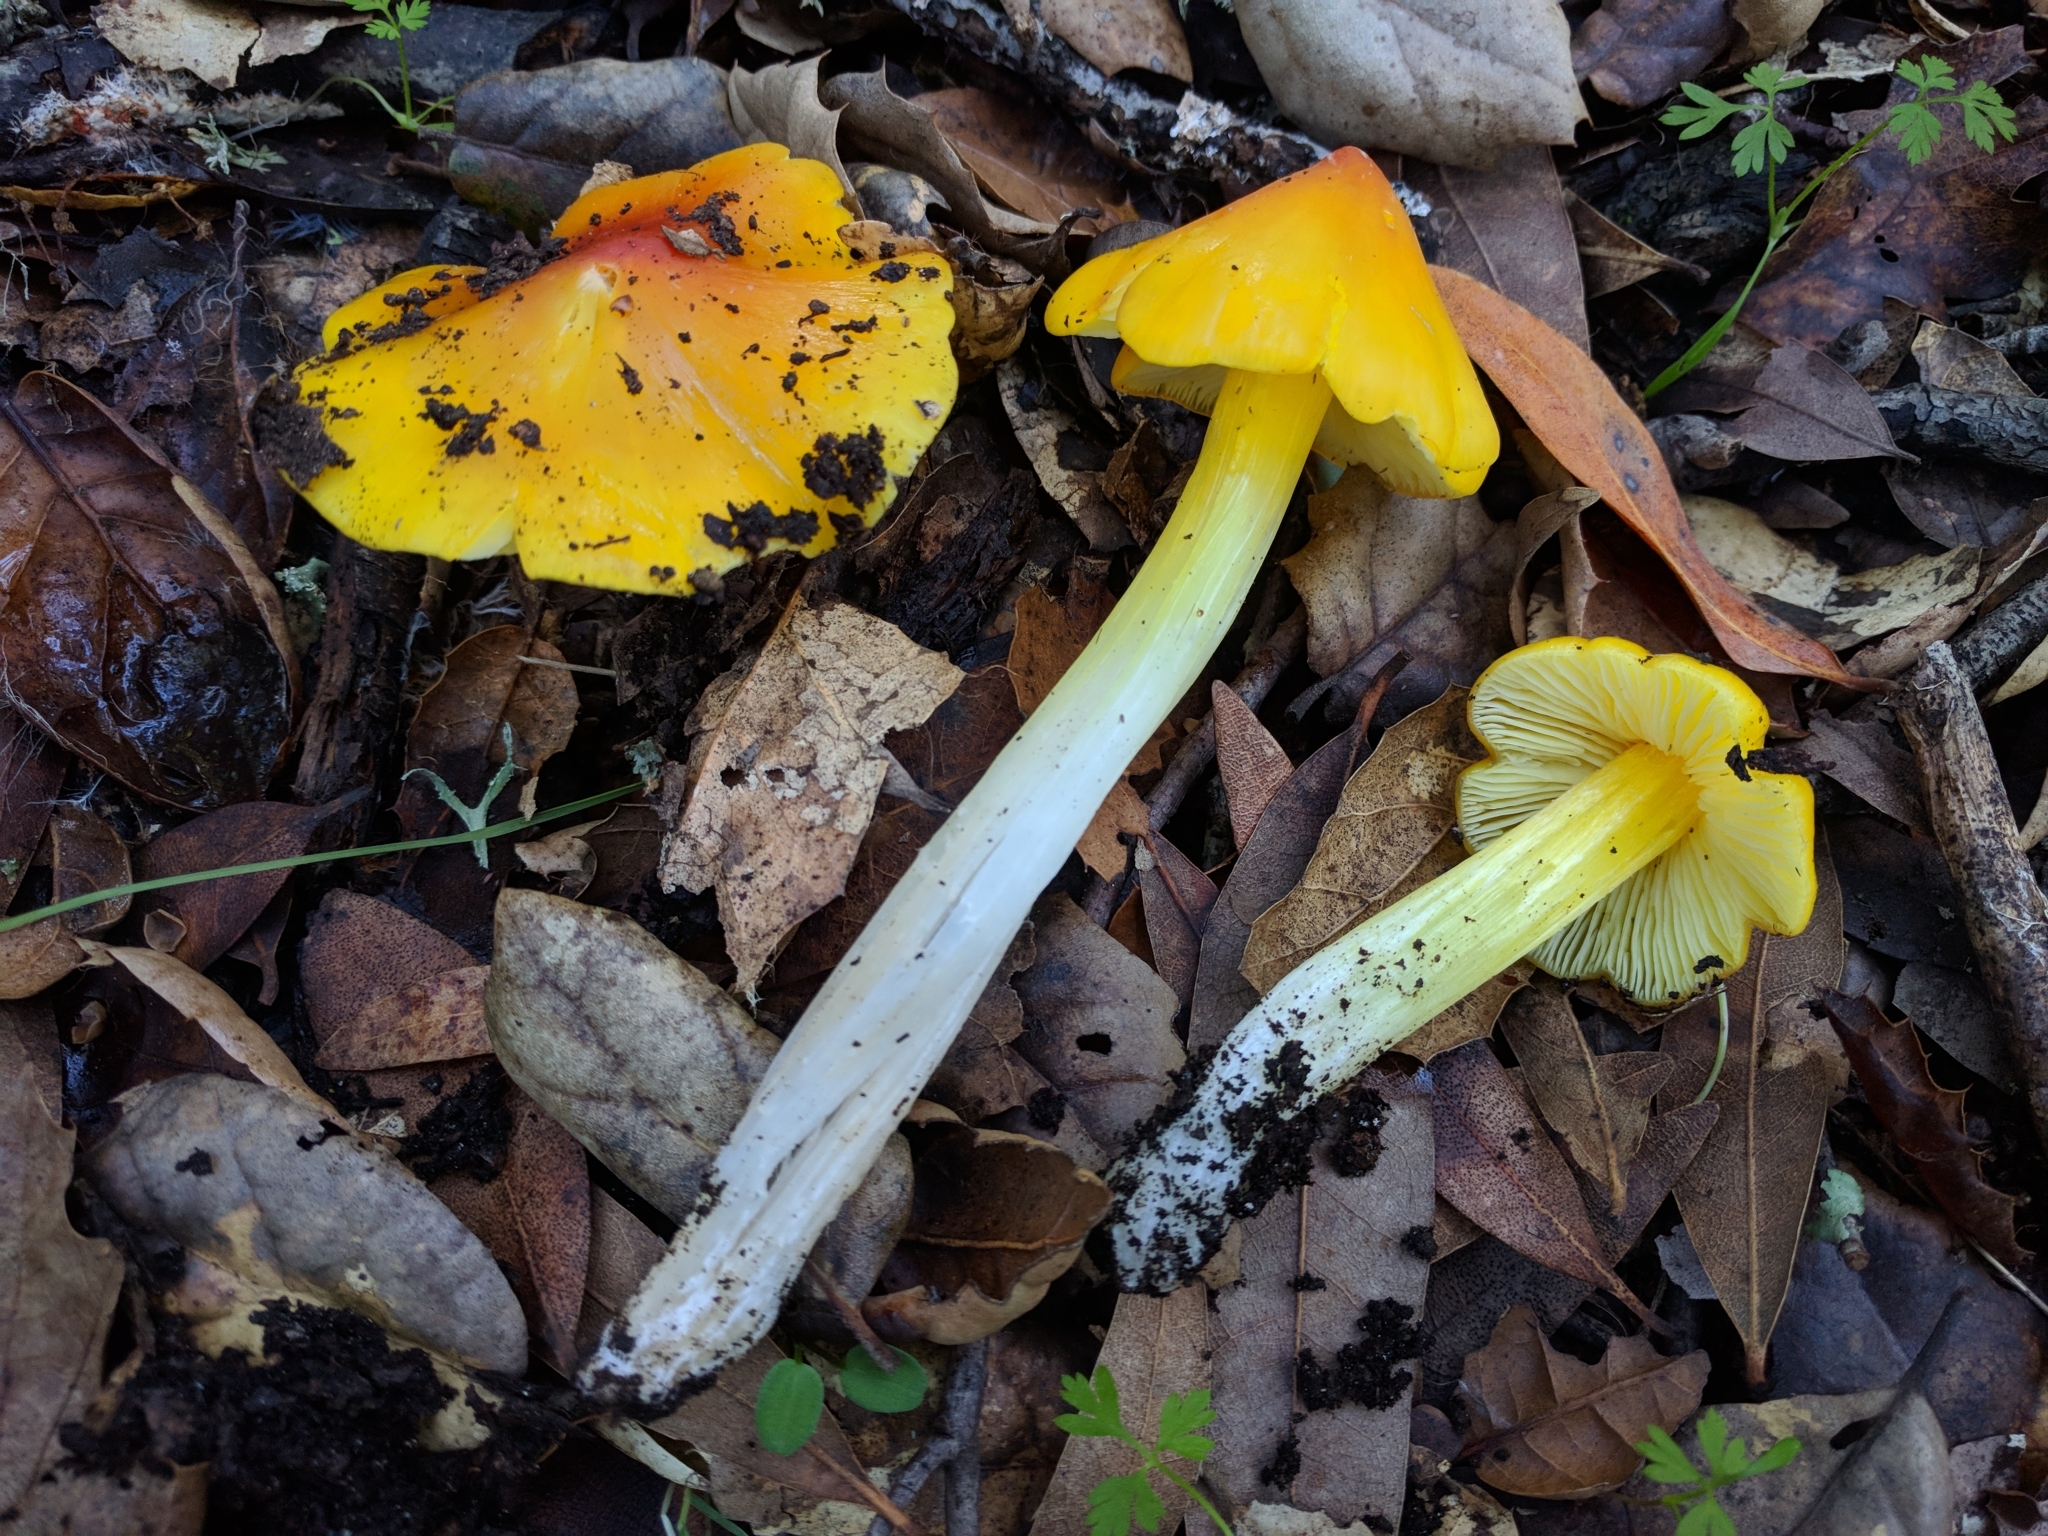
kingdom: Fungi
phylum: Basidiomycota
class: Agaricomycetes
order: Agaricales
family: Hygrophoraceae
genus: Hygrocybe
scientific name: Hygrocybe acutoconica
